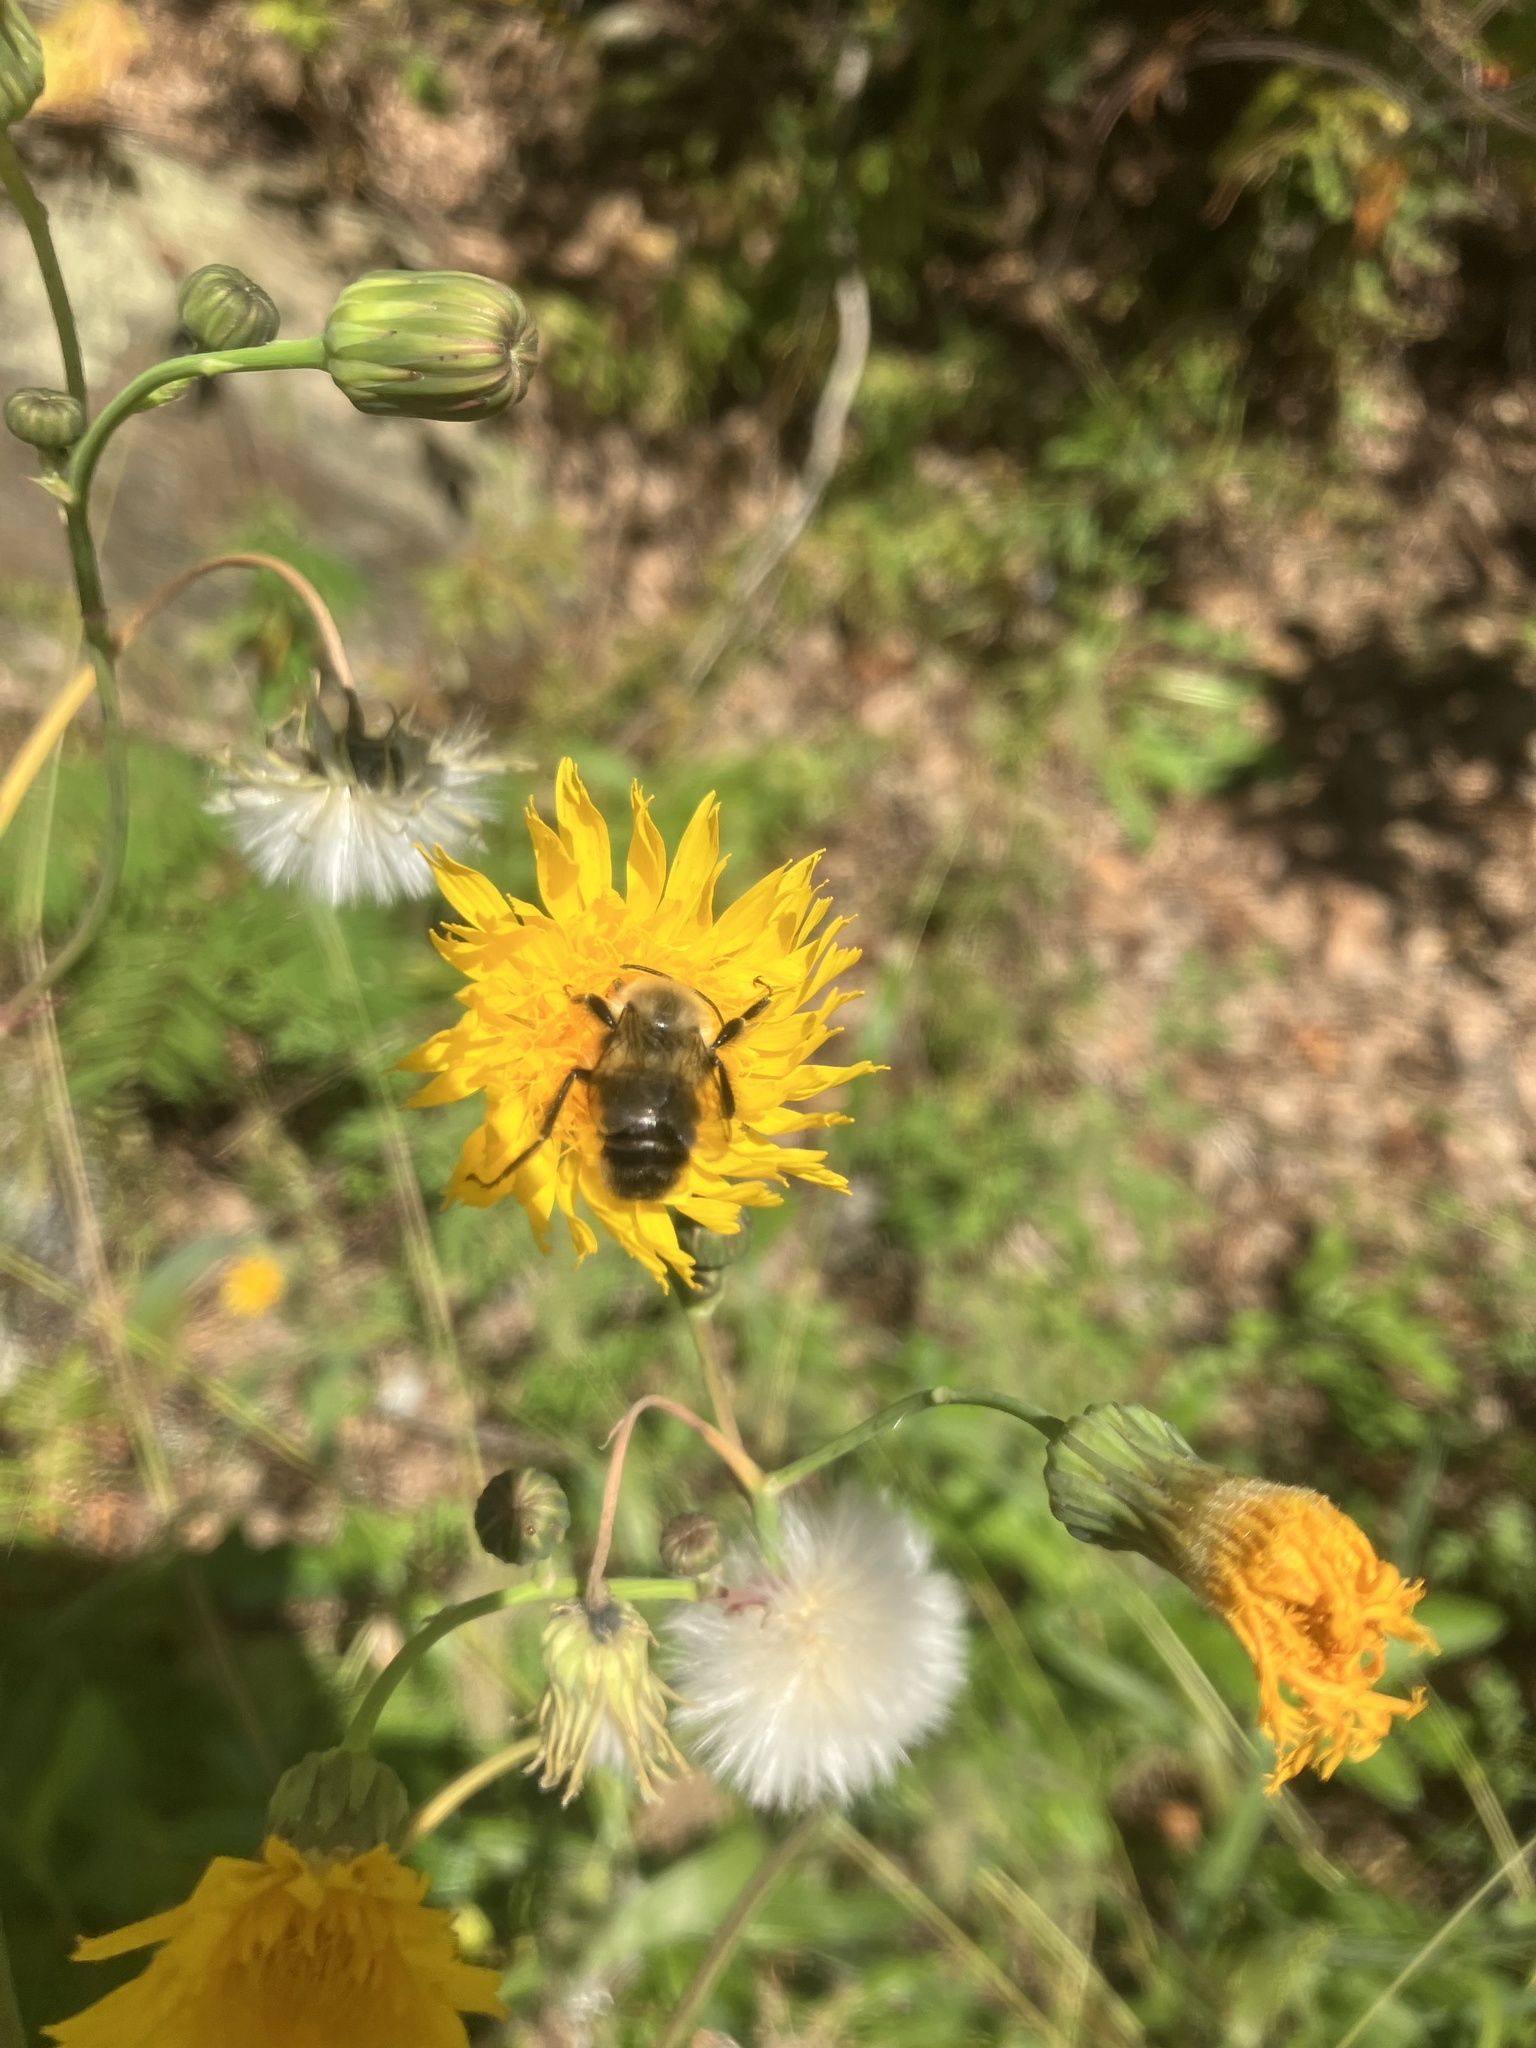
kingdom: Animalia
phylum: Arthropoda
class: Insecta
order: Hymenoptera
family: Apidae
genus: Bombus
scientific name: Bombus impatiens
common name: Common eastern bumble bee
